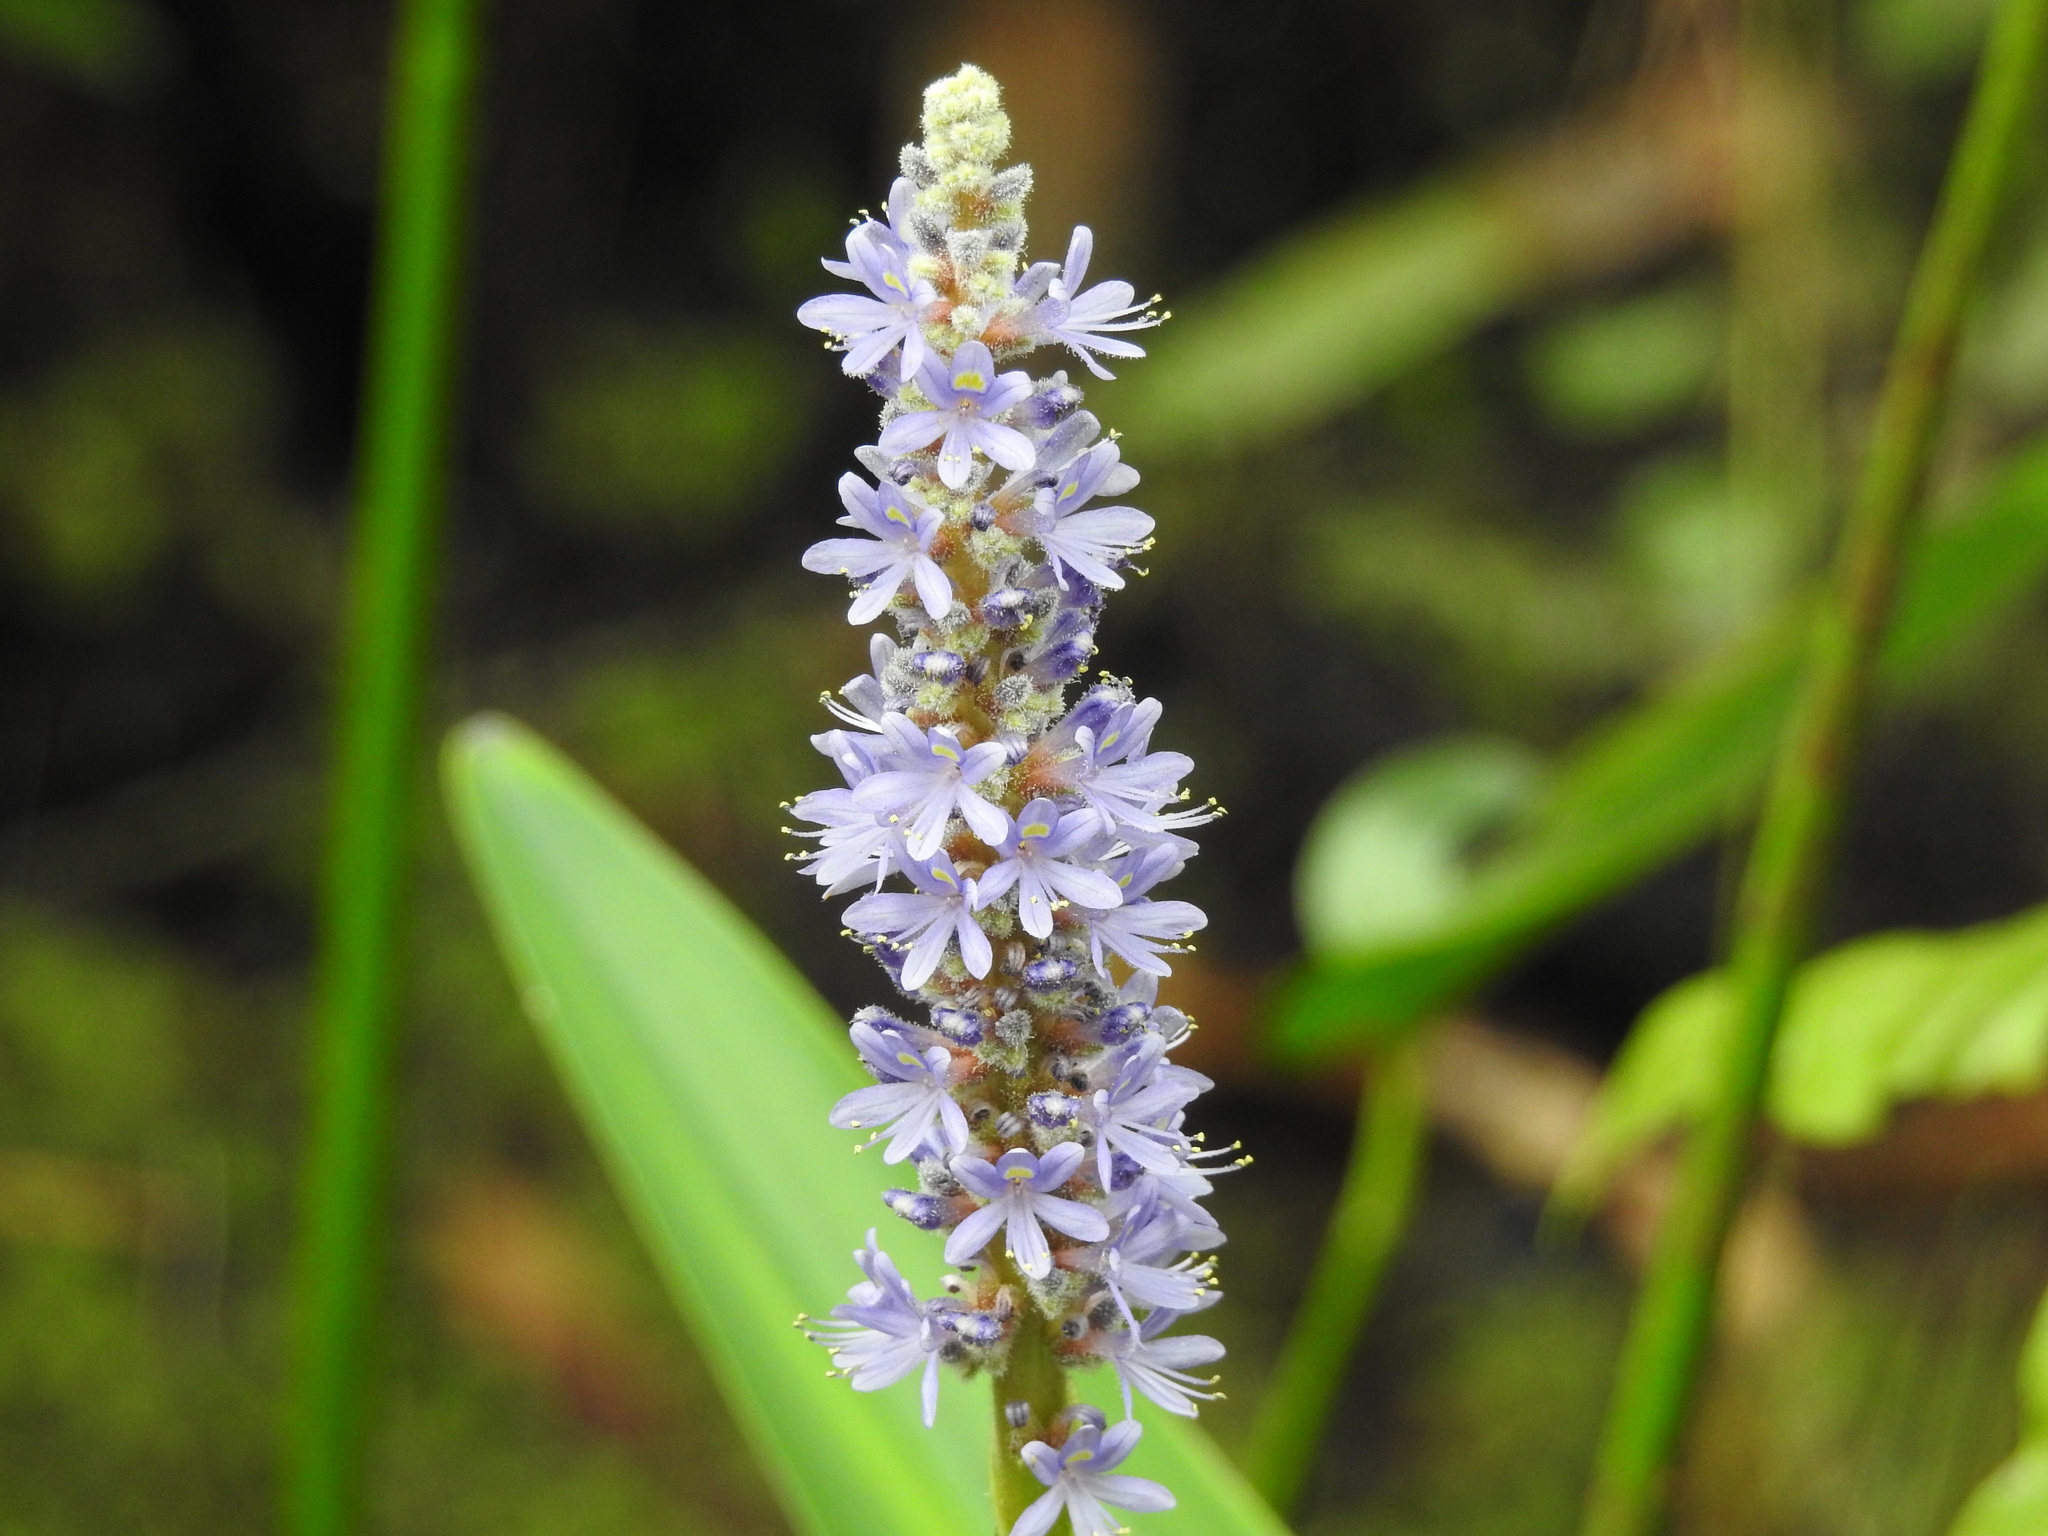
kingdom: Plantae
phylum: Tracheophyta
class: Liliopsida
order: Commelinales
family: Pontederiaceae
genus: Pontederia
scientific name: Pontederia cordata
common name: Pickerelweed
